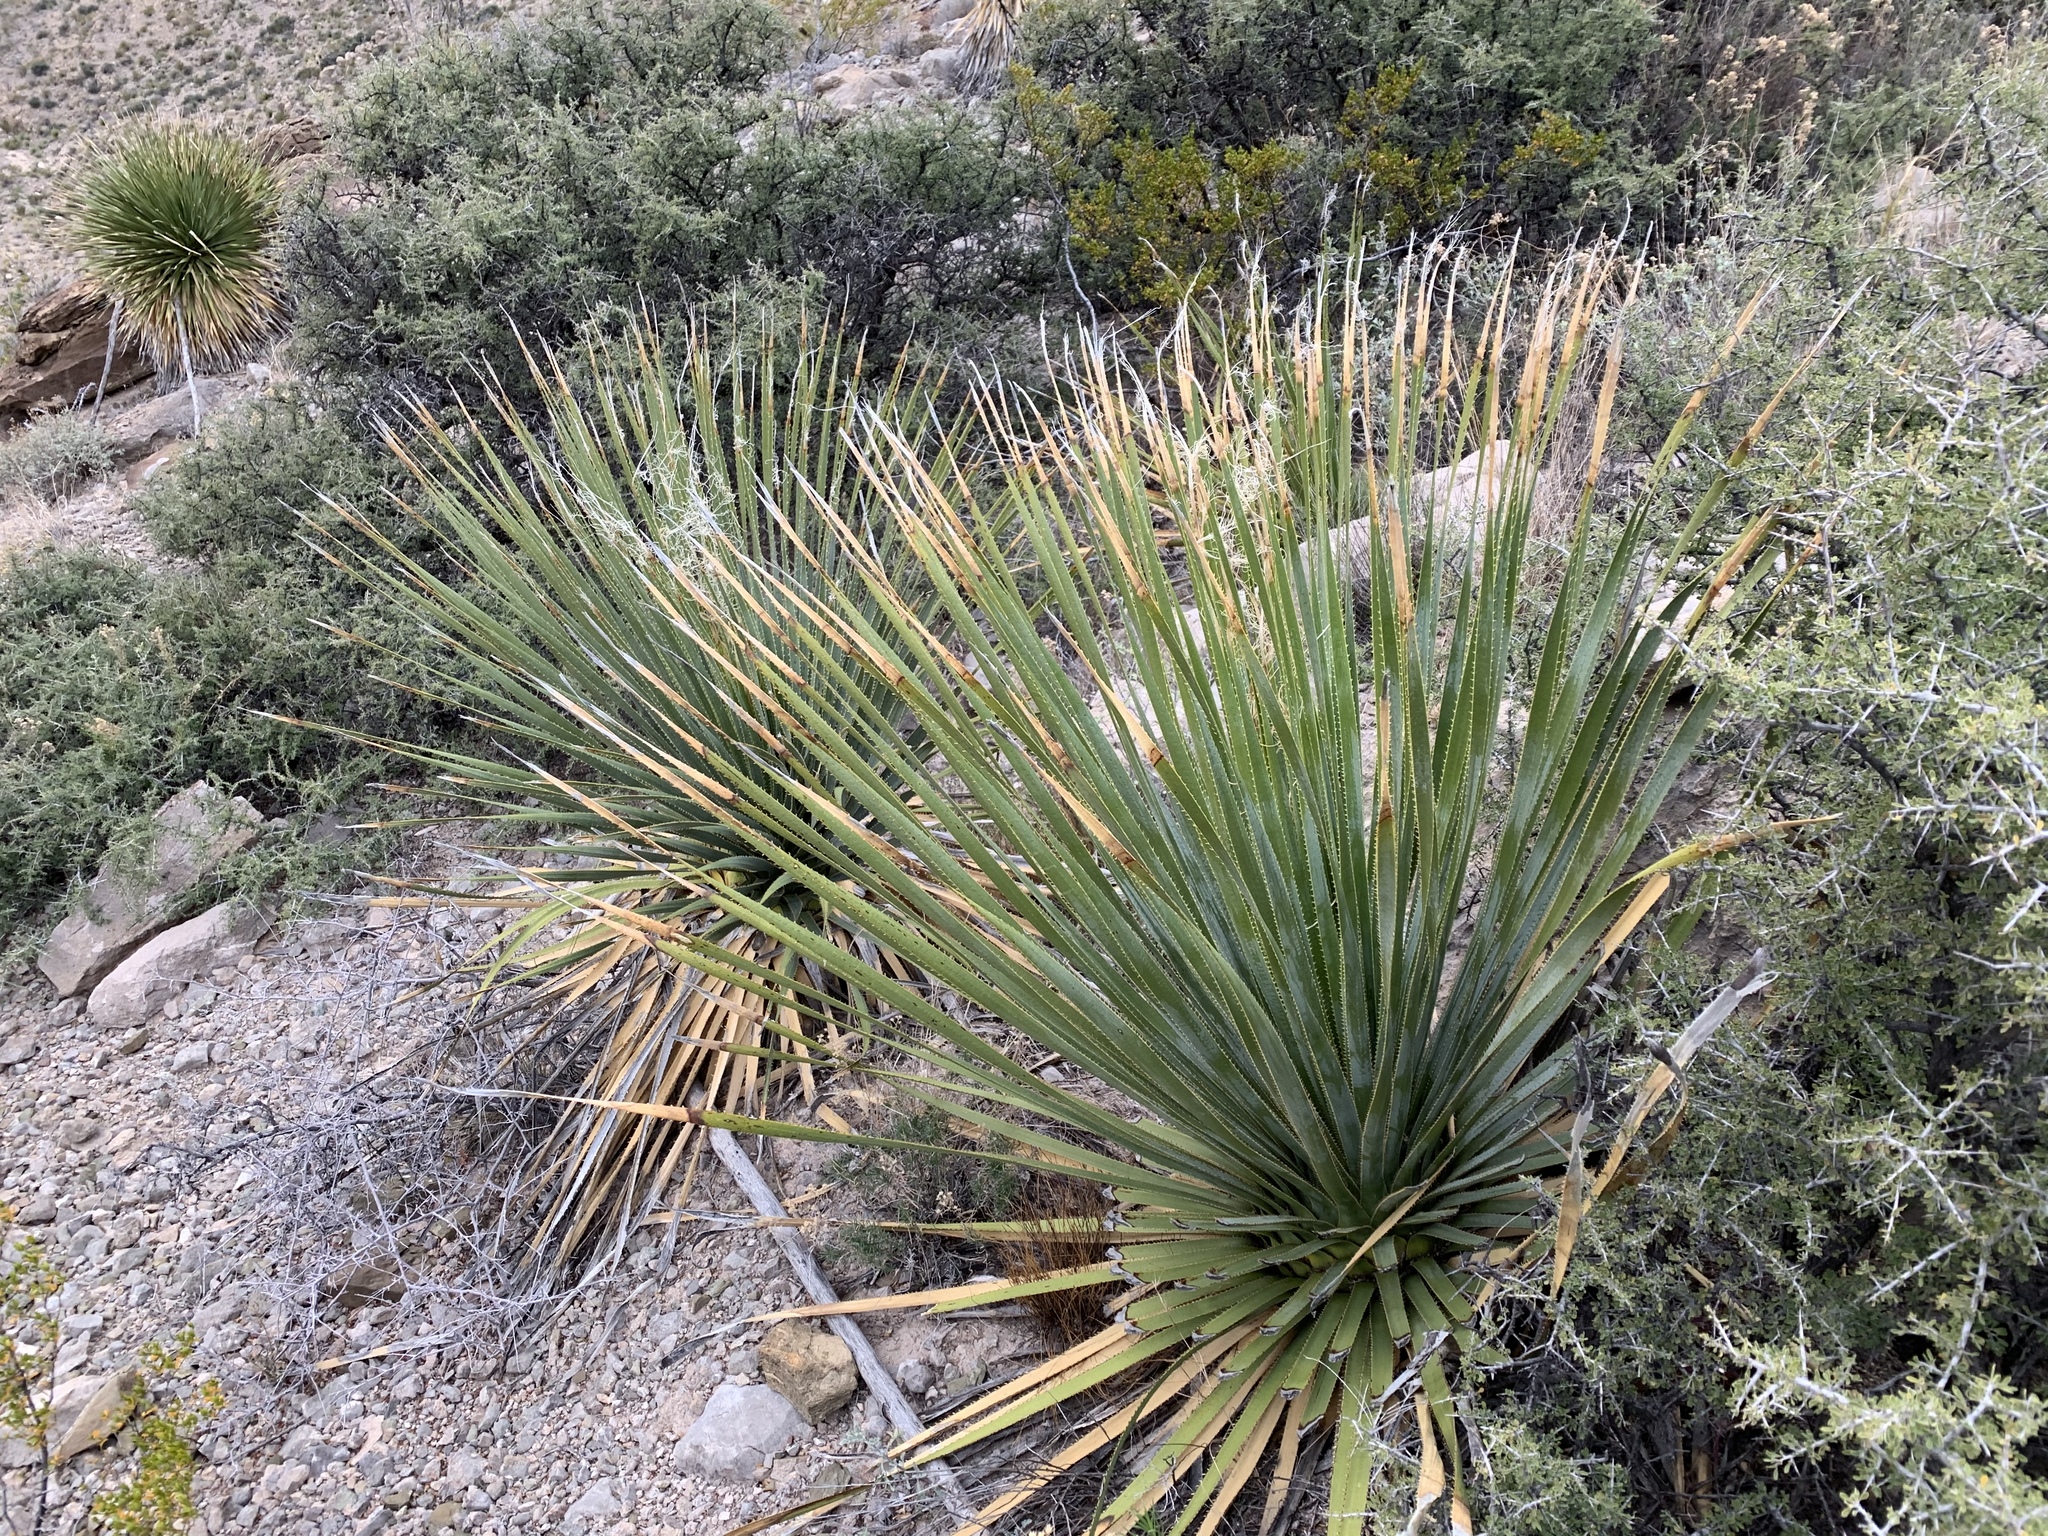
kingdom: Plantae
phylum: Tracheophyta
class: Liliopsida
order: Asparagales
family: Asparagaceae
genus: Dasylirion
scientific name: Dasylirion wheeleri
